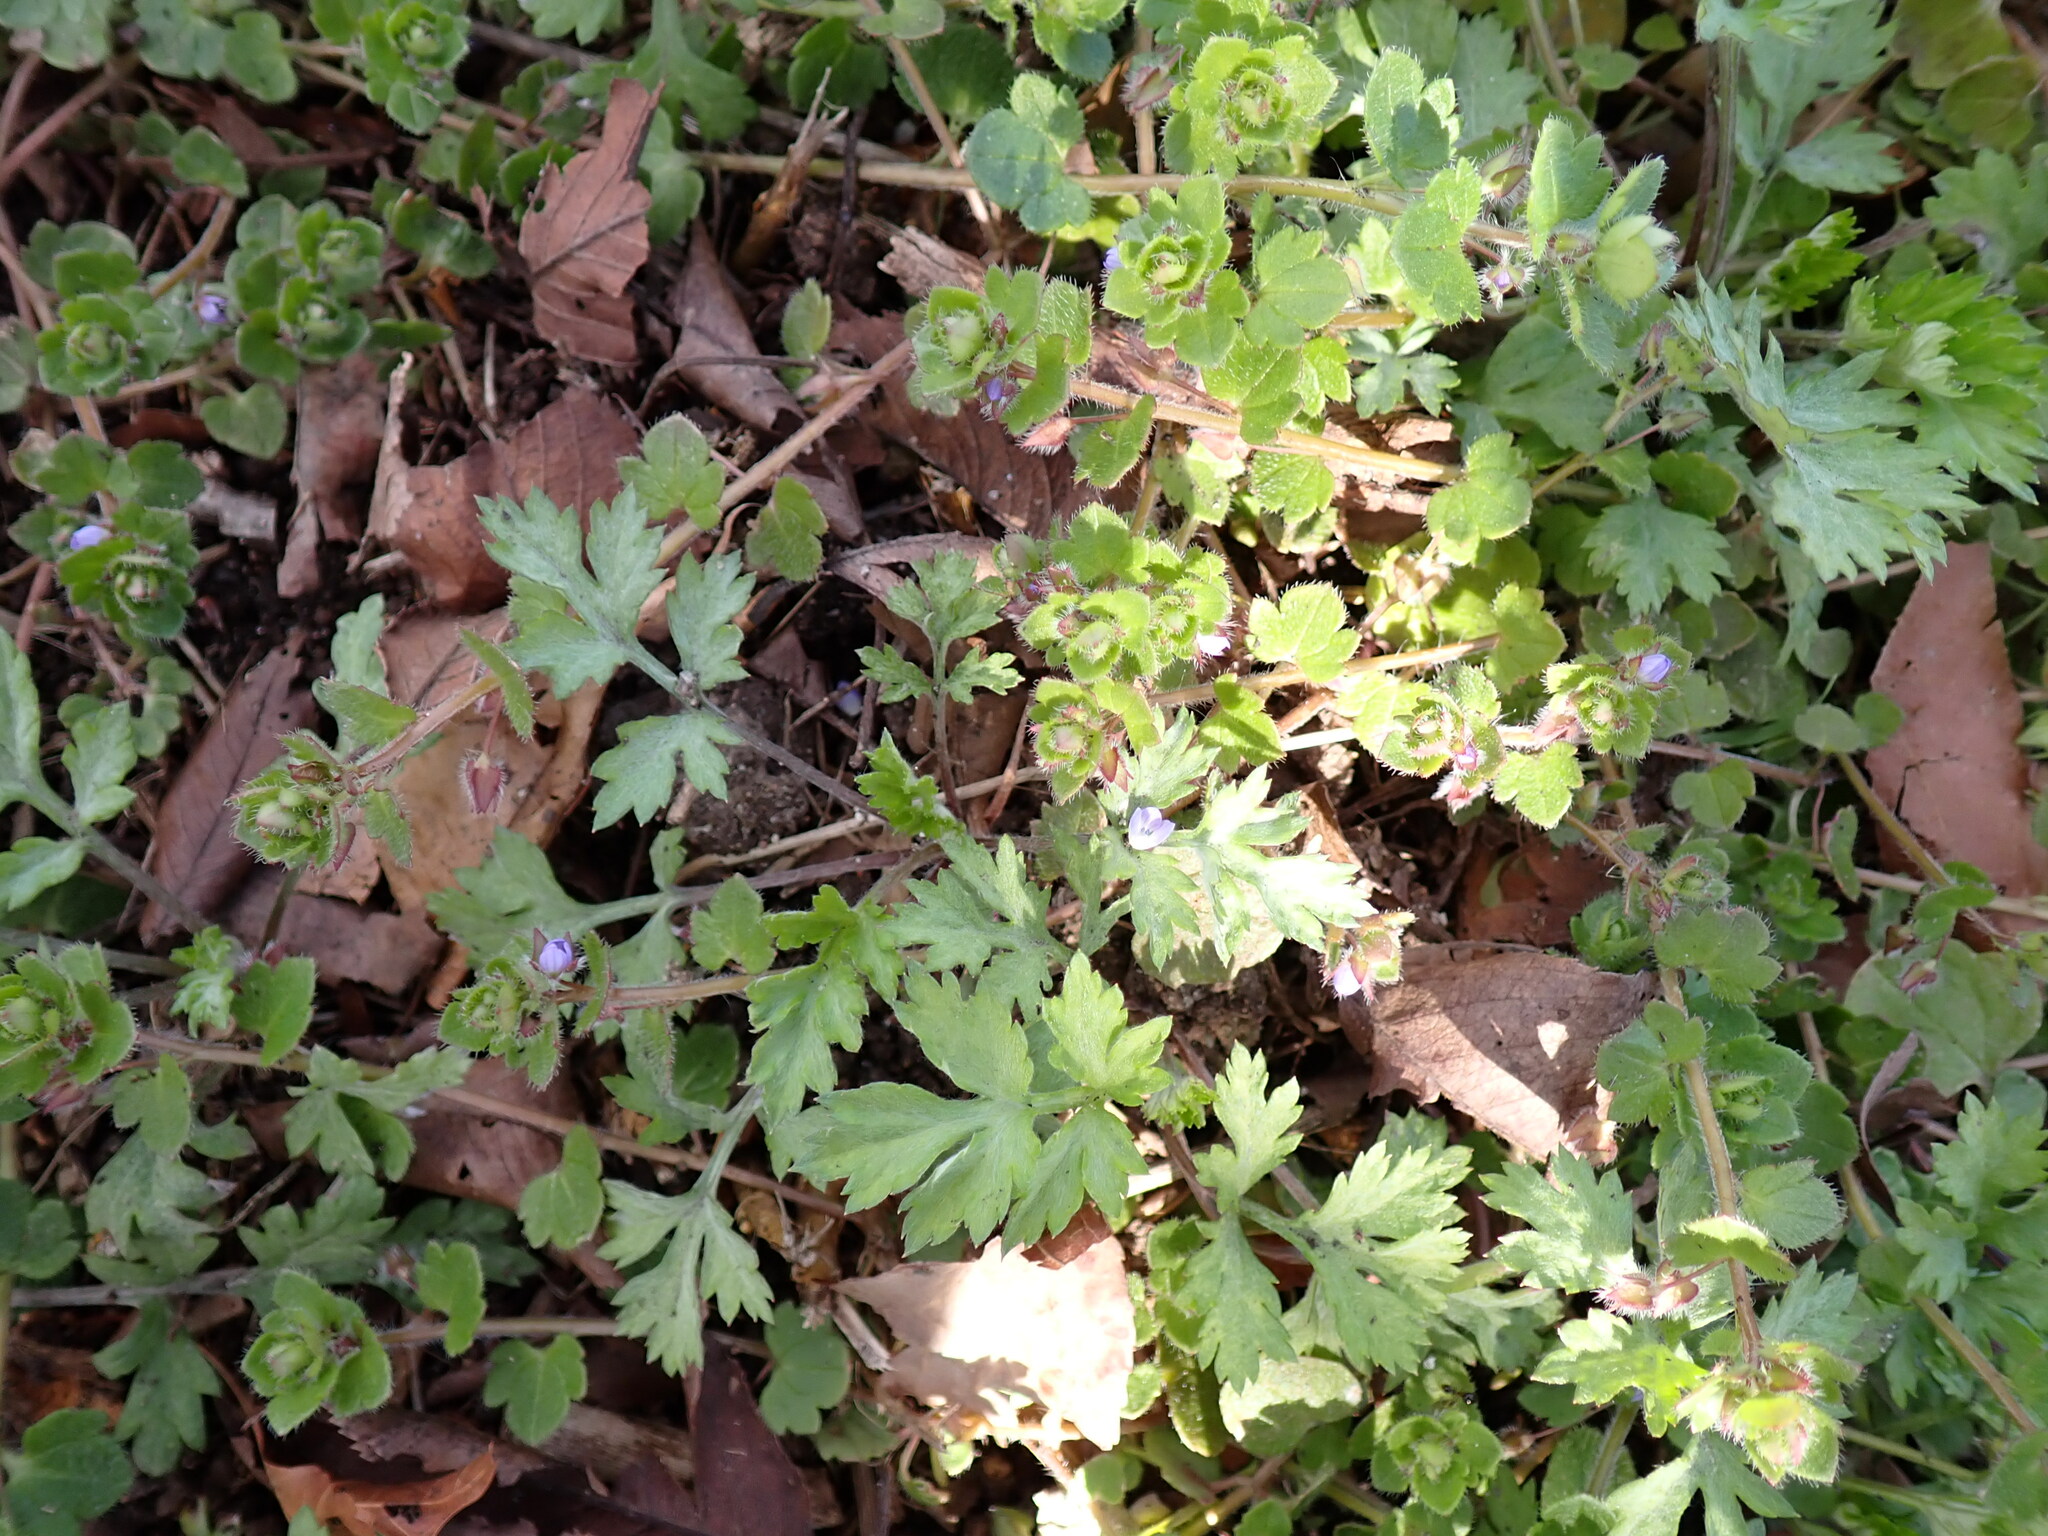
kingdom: Plantae
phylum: Tracheophyta
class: Magnoliopsida
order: Lamiales
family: Plantaginaceae
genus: Veronica
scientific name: Veronica hederifolia
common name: Ivy-leaved speedwell
